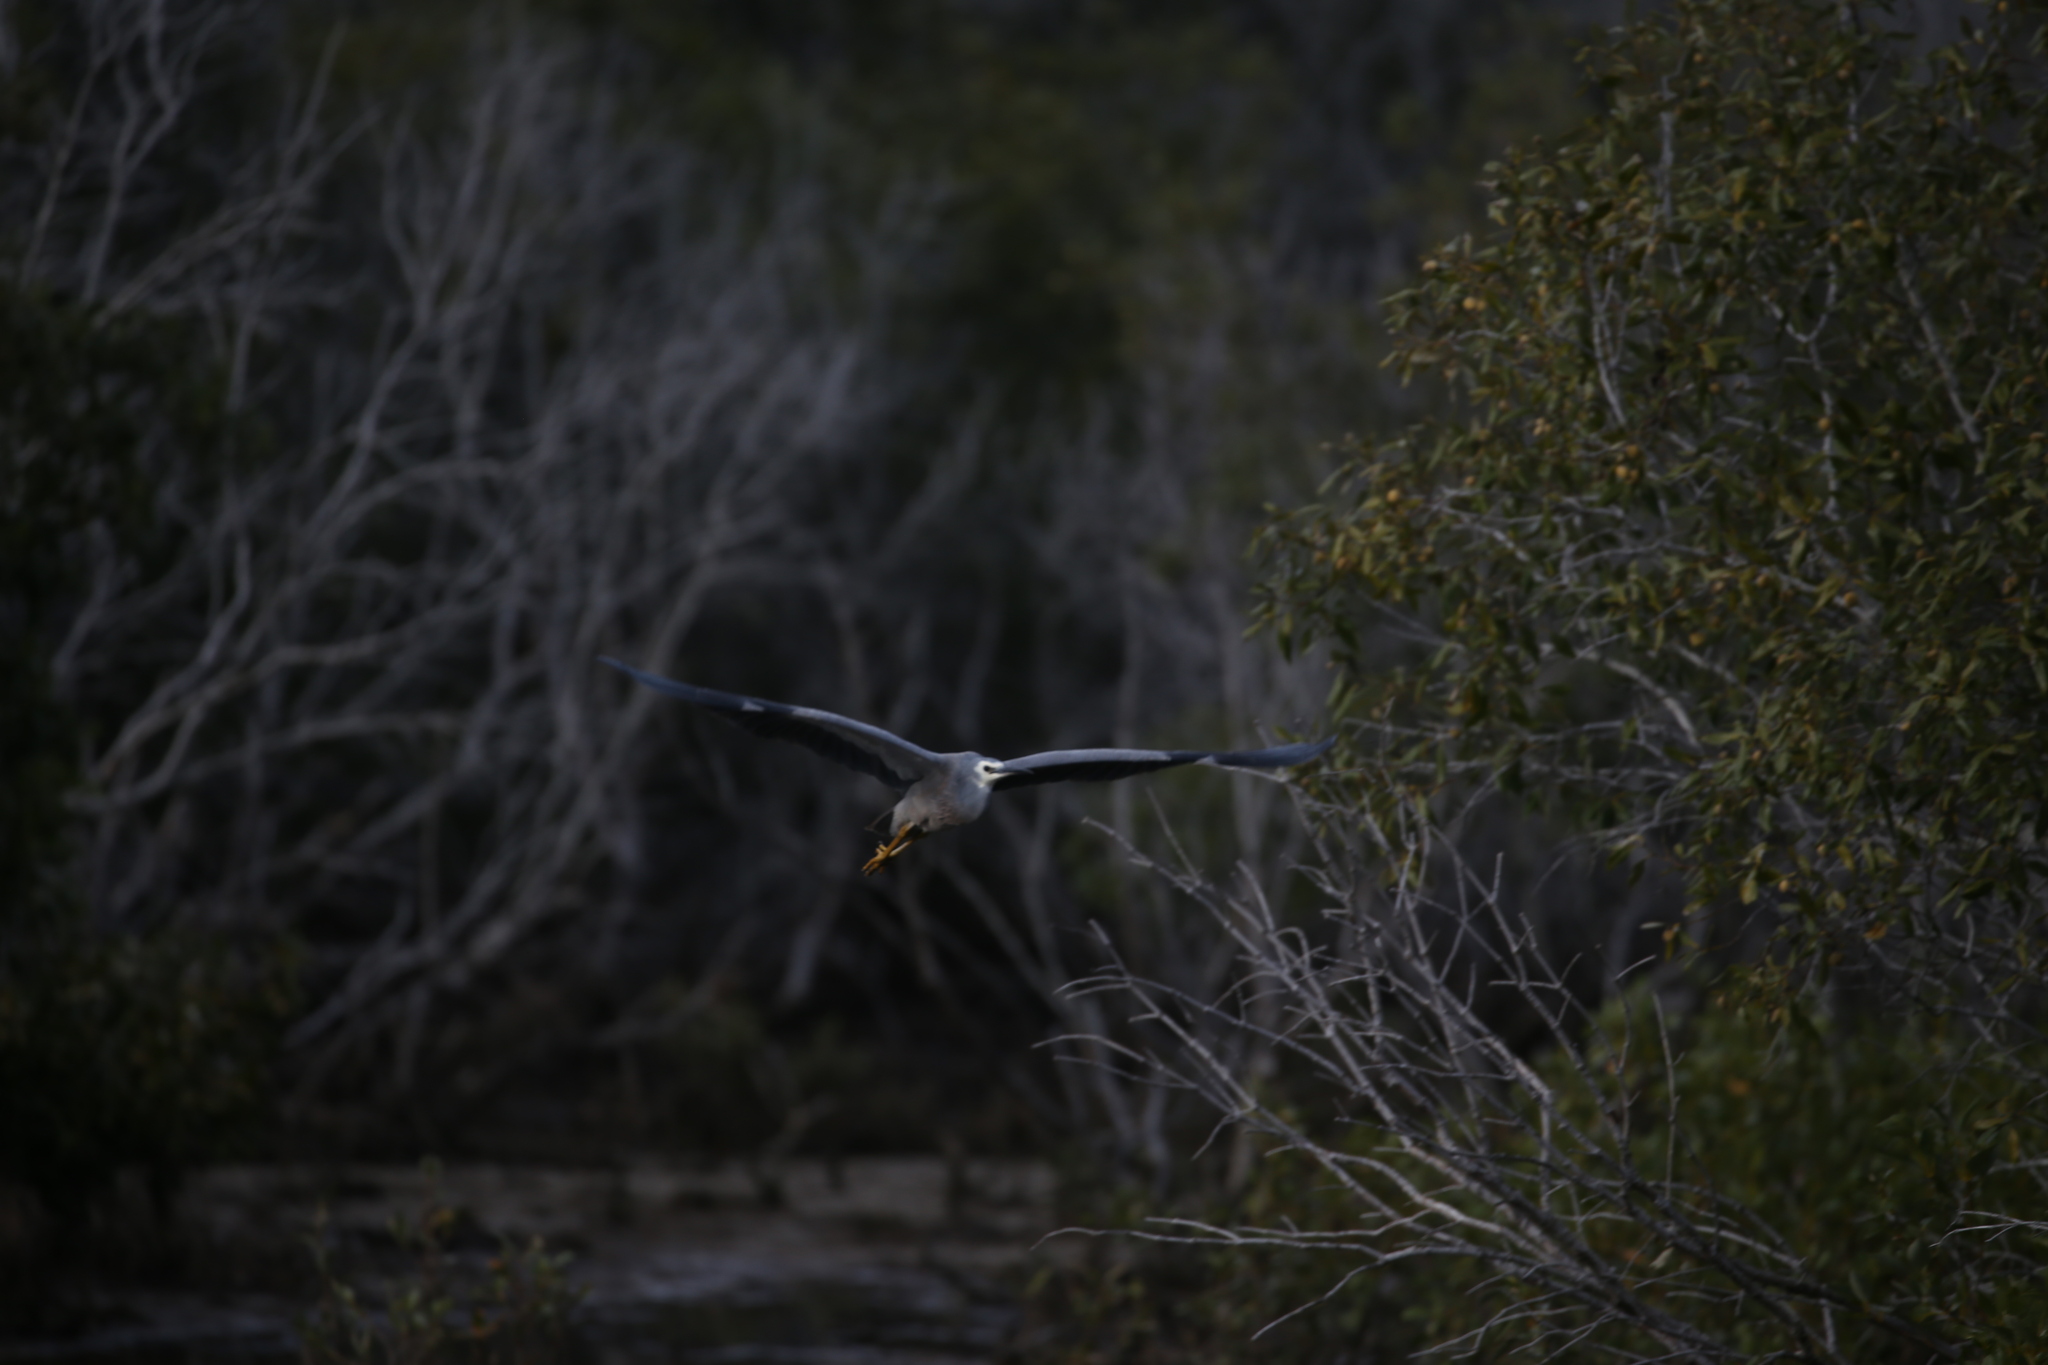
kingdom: Animalia
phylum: Chordata
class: Aves
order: Pelecaniformes
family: Ardeidae
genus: Egretta
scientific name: Egretta novaehollandiae
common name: White-faced heron
